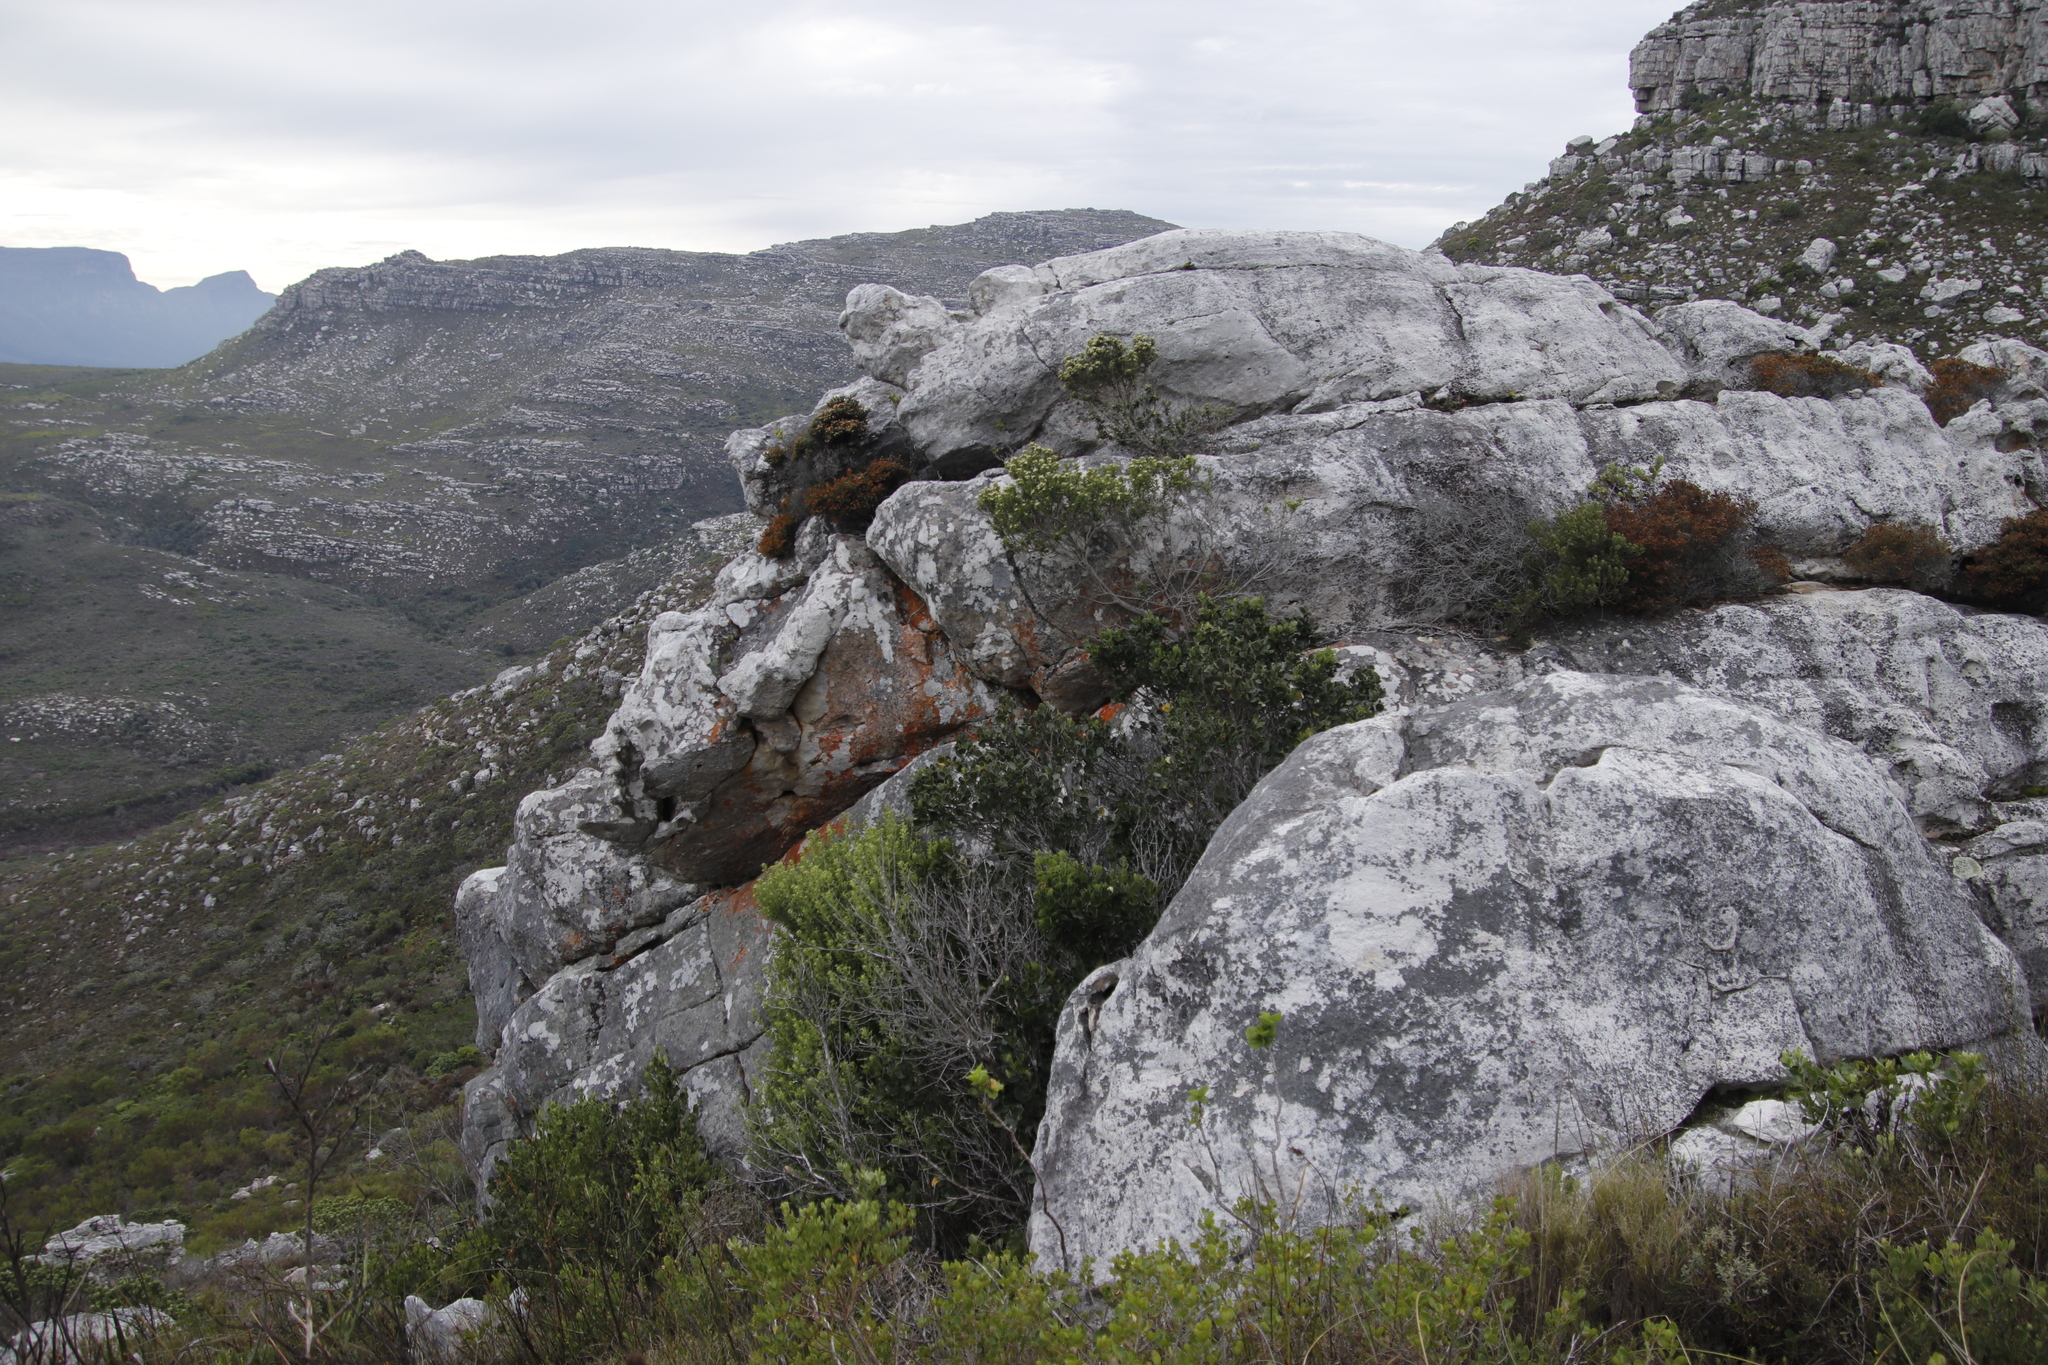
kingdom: Plantae
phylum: Tracheophyta
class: Magnoliopsida
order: Celastrales
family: Celastraceae
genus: Cassine
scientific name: Cassine peragua
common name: Cape saffron
